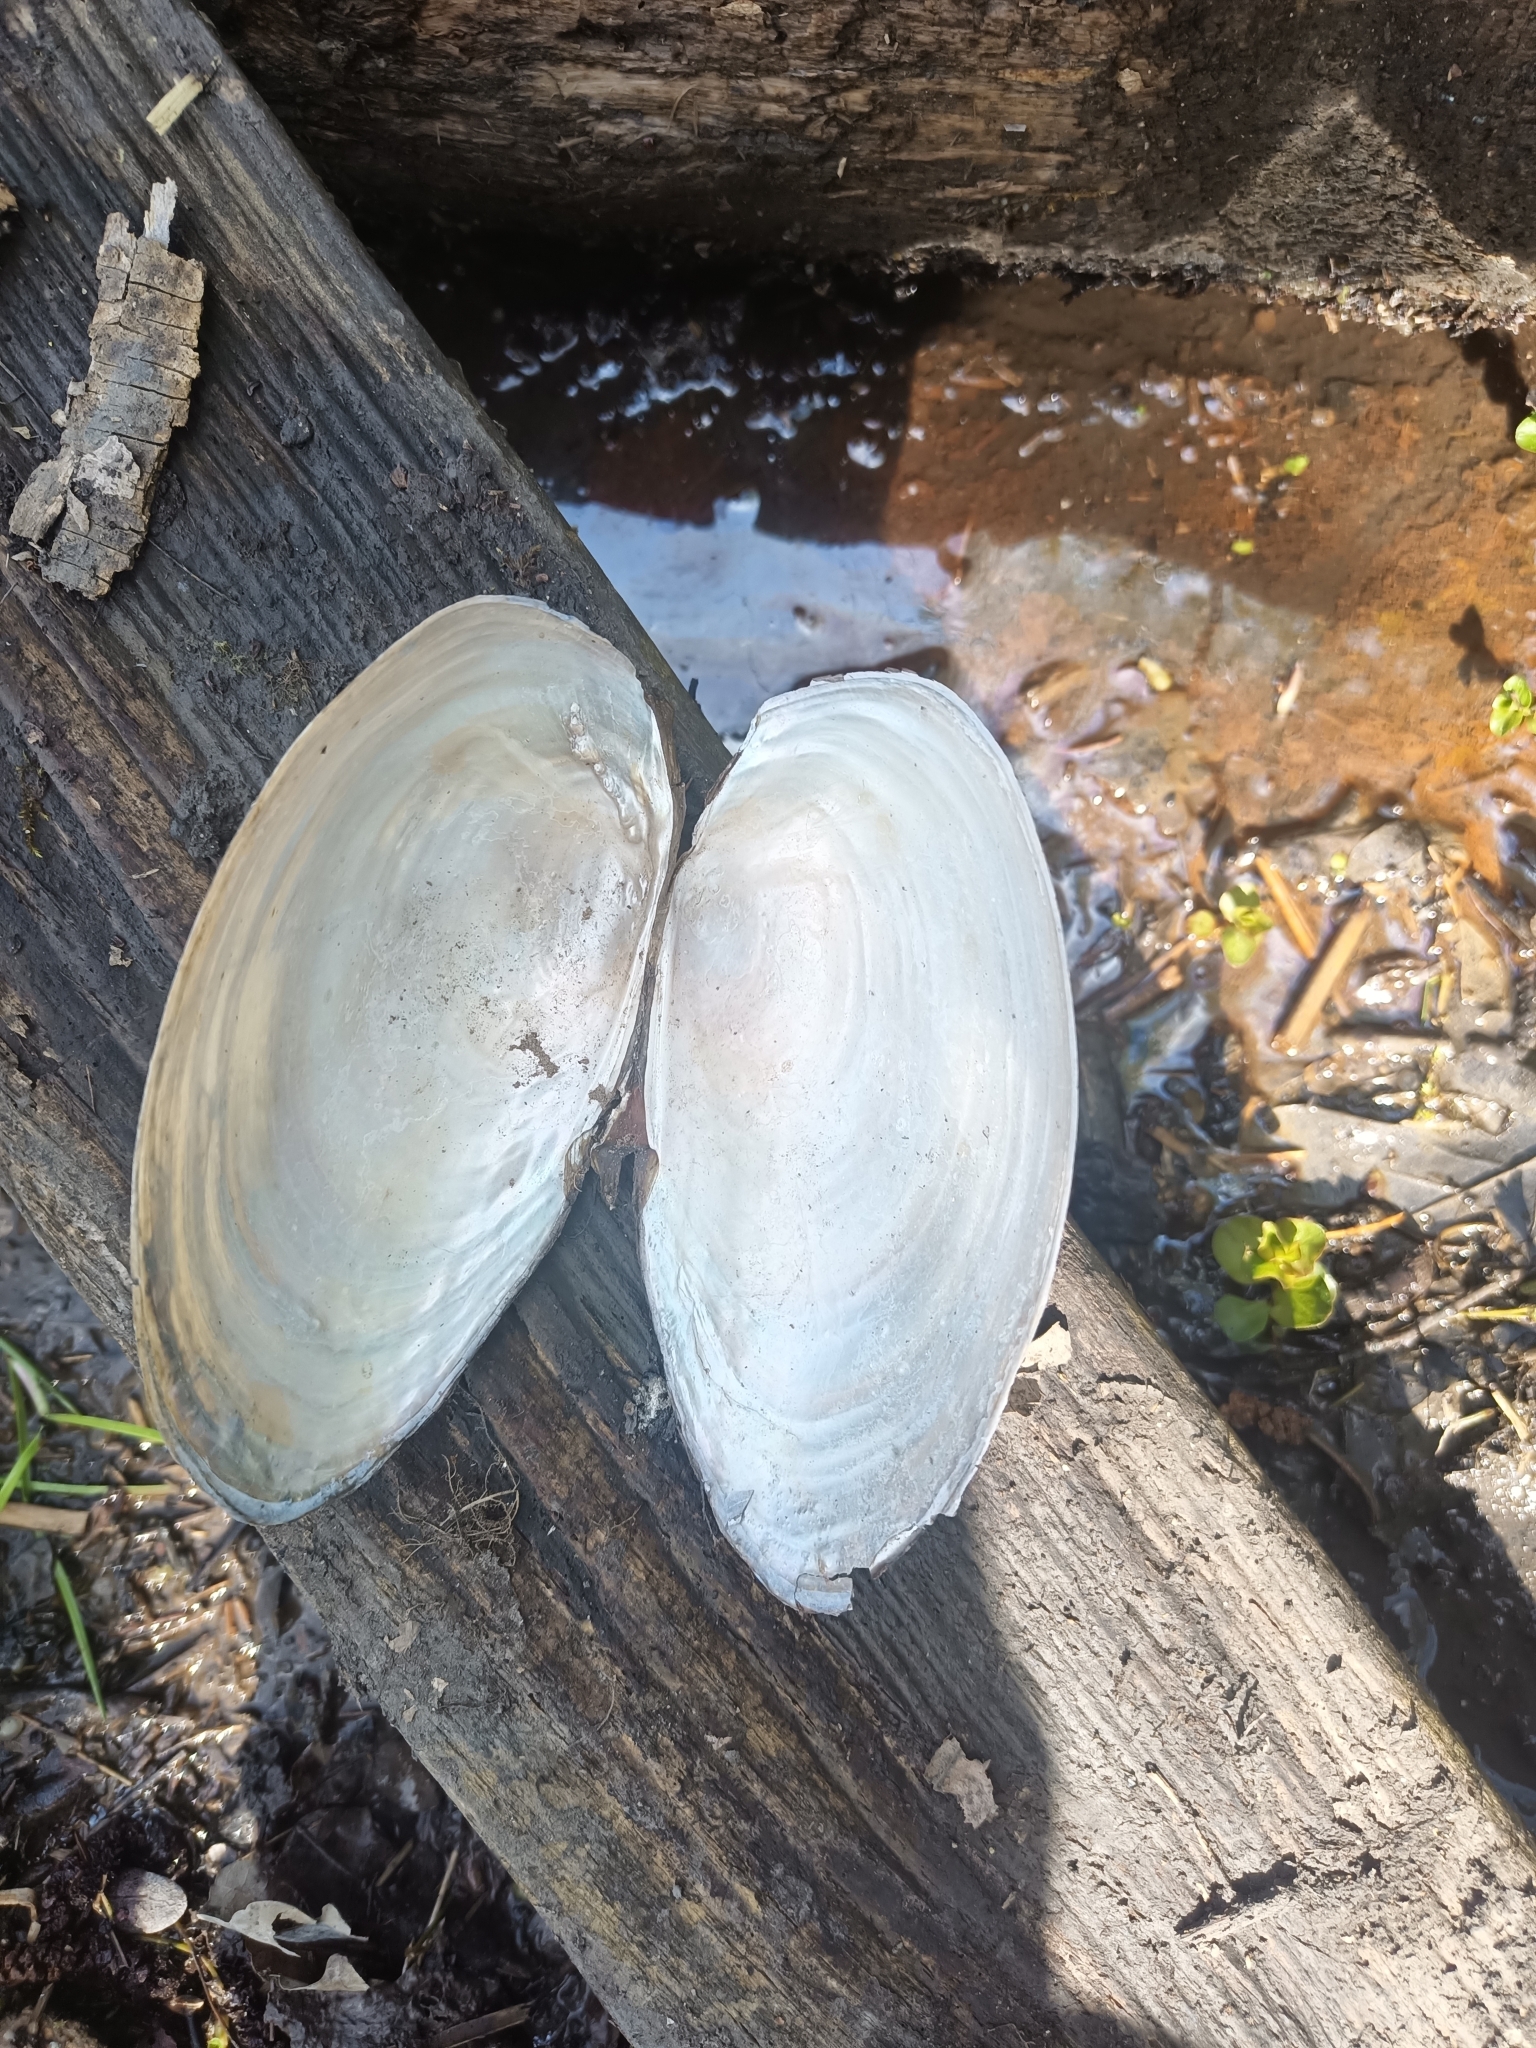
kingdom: Animalia
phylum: Mollusca
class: Bivalvia
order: Unionida
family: Unionidae
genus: Anodonta
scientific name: Anodonta cygnea
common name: Swan mussel
